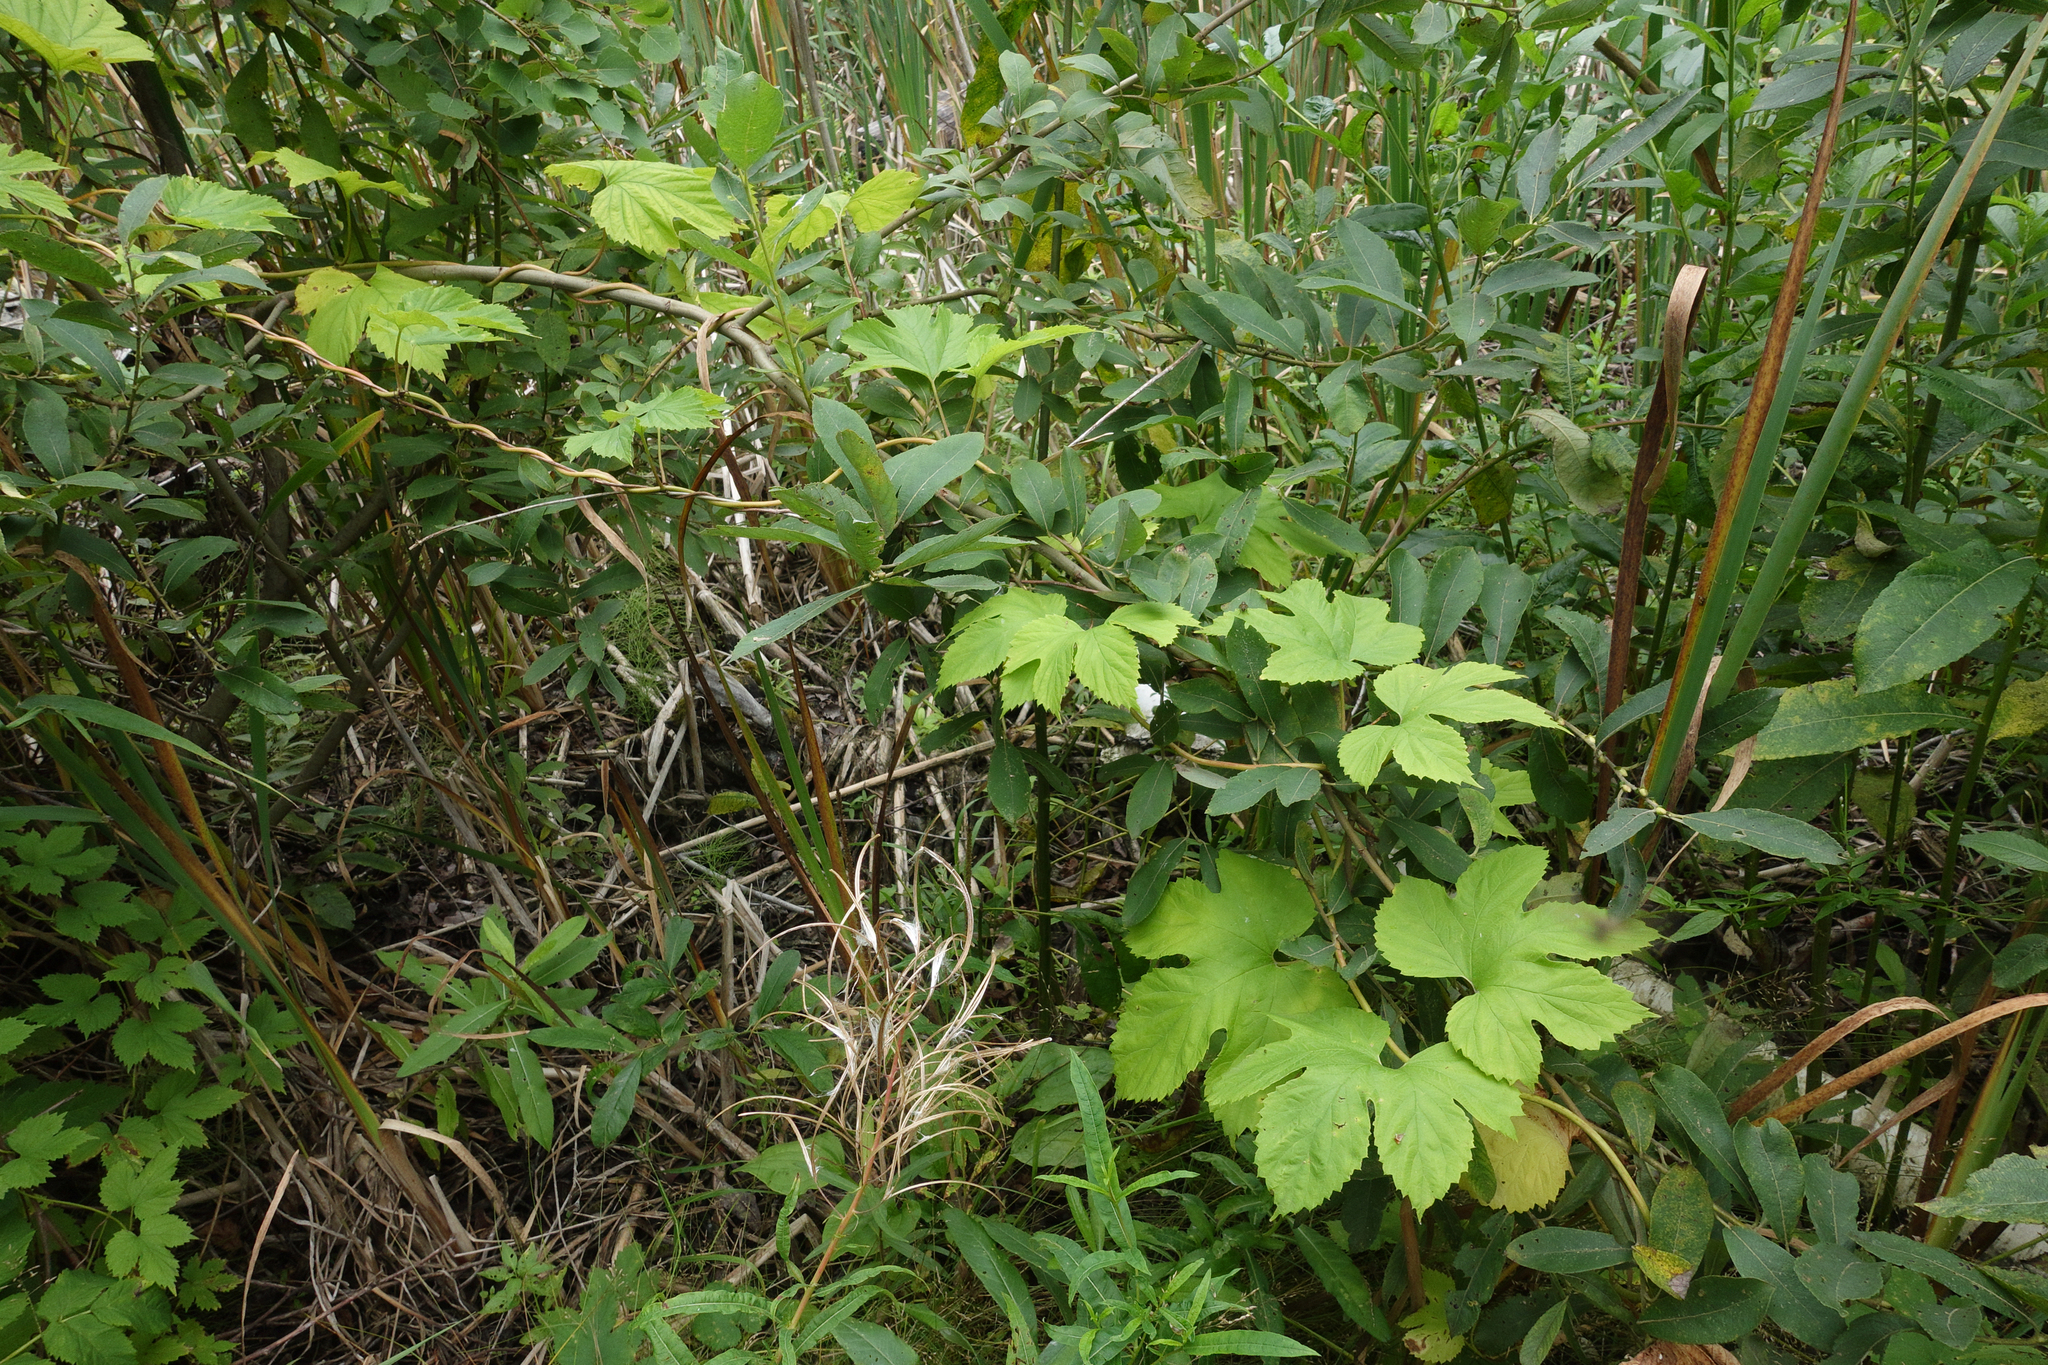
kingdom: Plantae
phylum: Tracheophyta
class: Magnoliopsida
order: Rosales
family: Cannabaceae
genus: Humulus
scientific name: Humulus lupulus
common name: Hop
